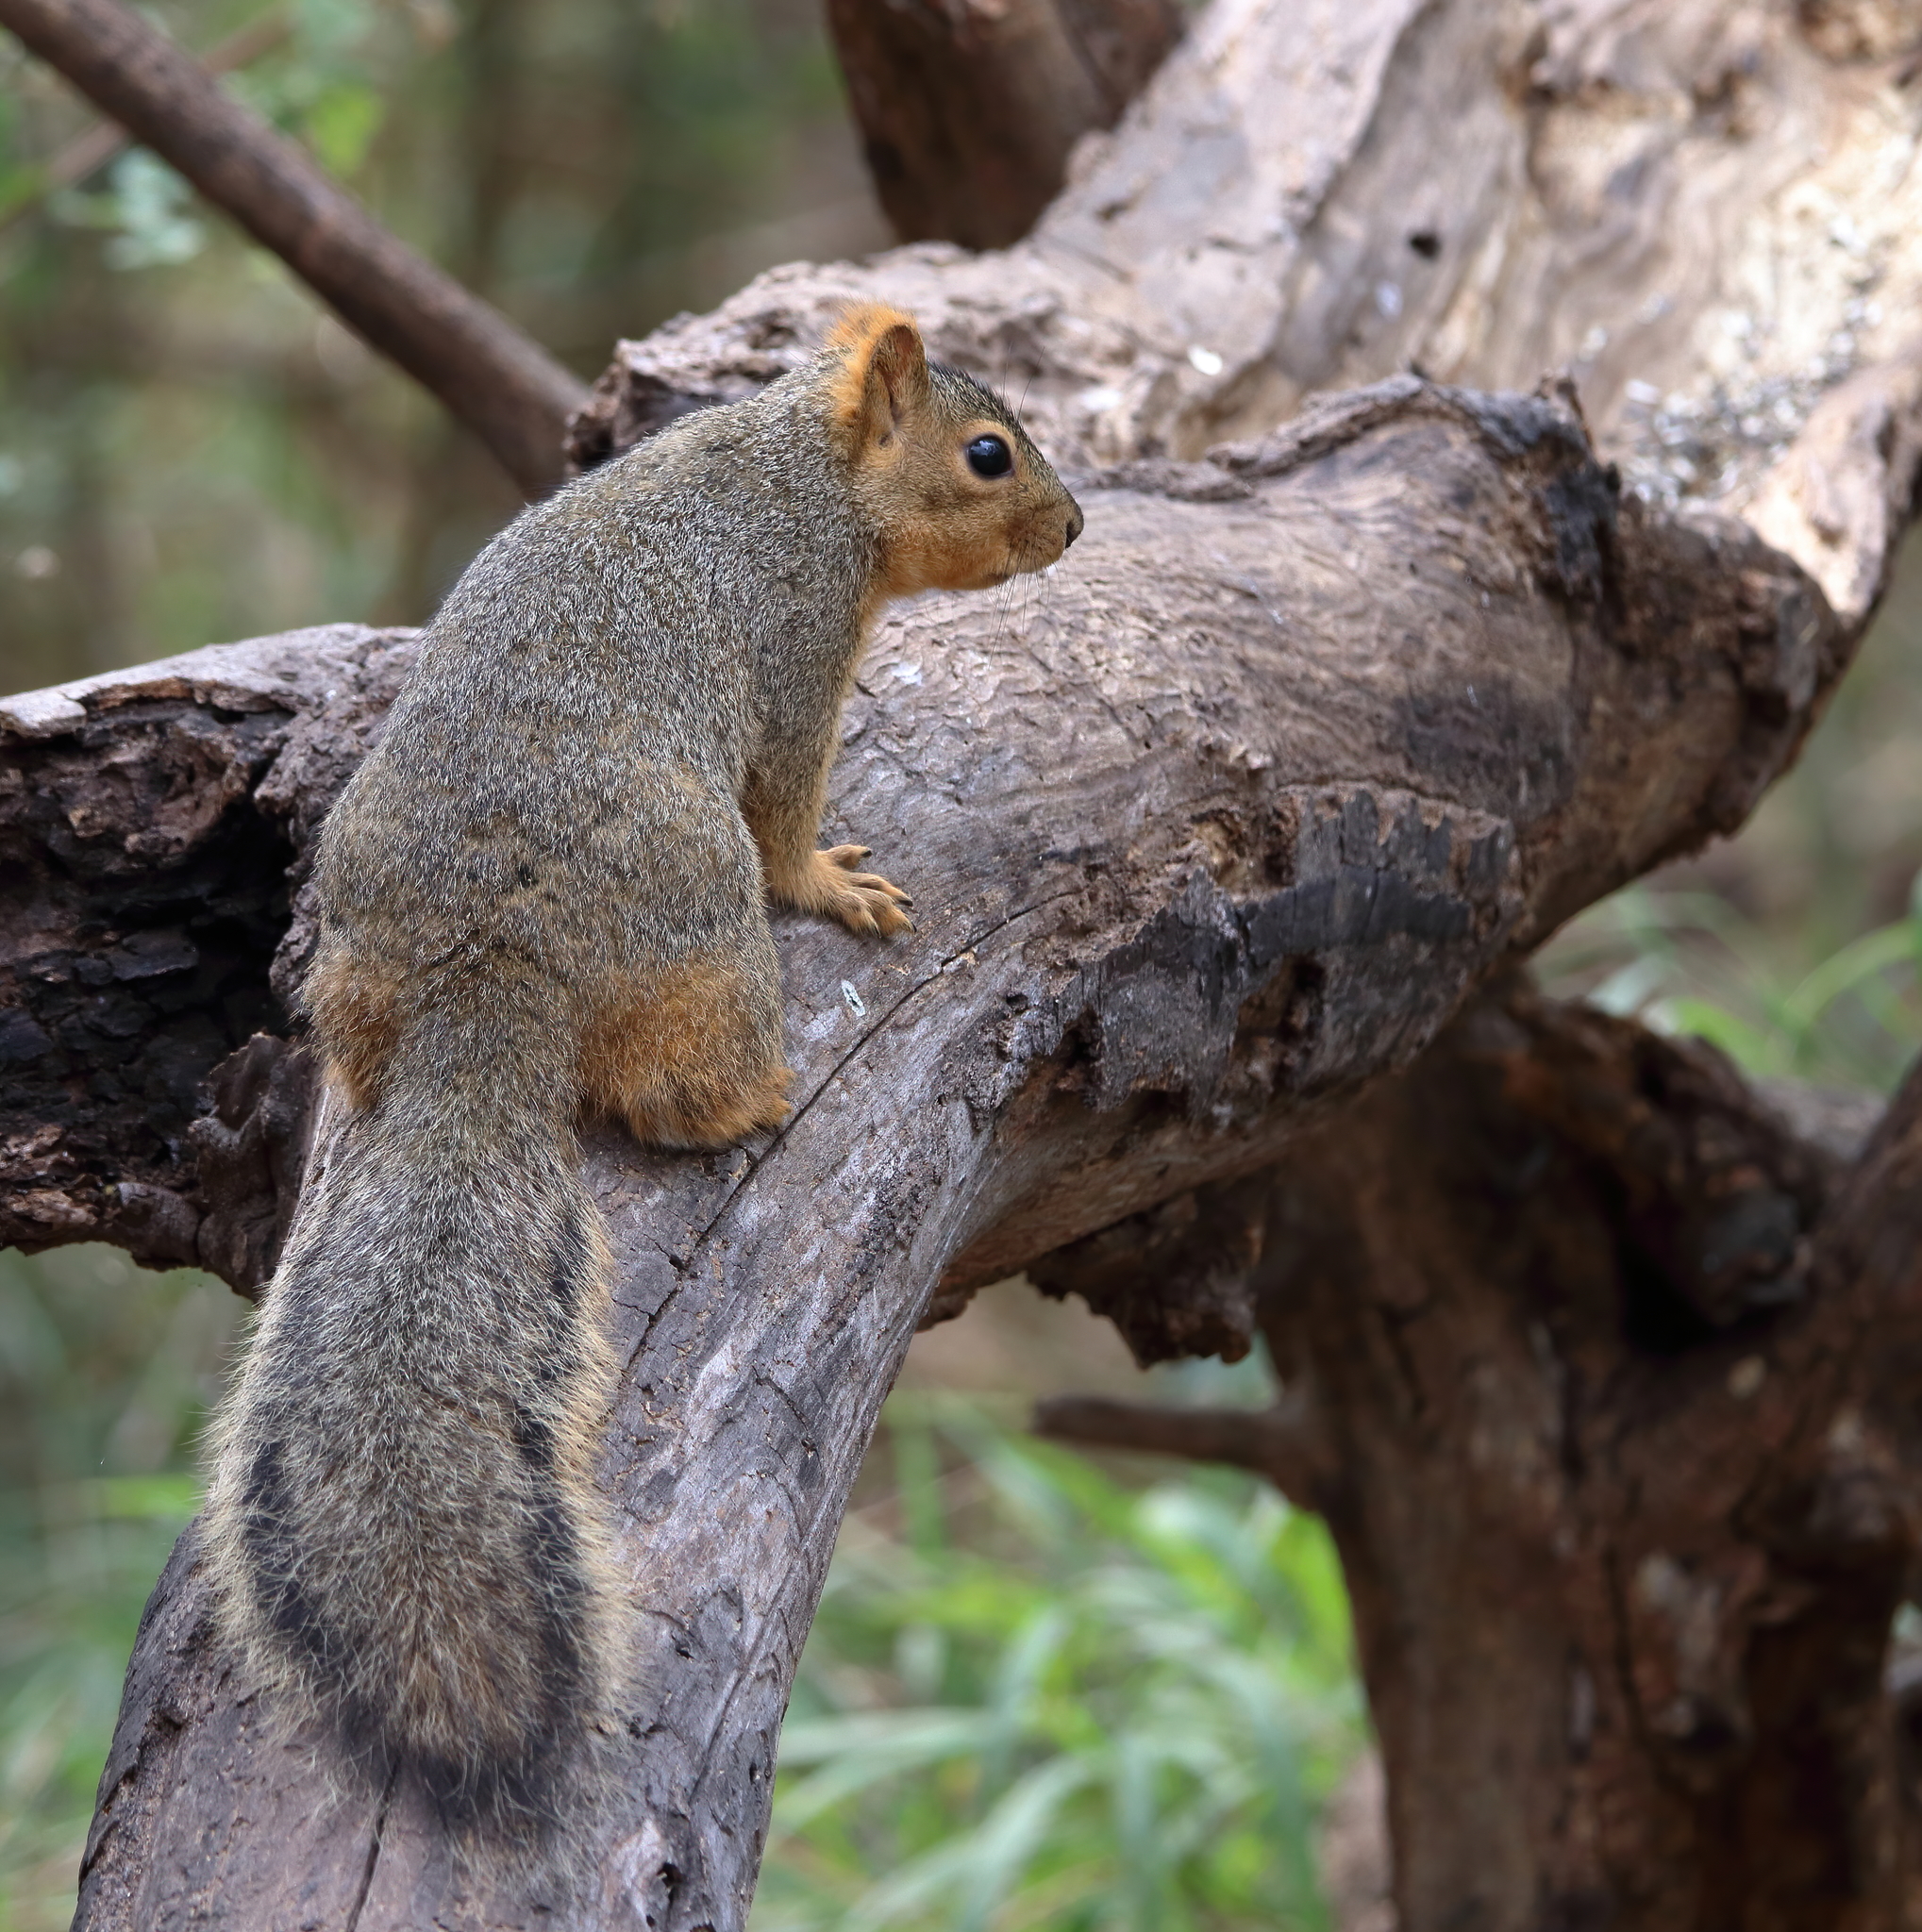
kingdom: Animalia
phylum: Chordata
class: Mammalia
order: Rodentia
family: Sciuridae
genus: Sciurus
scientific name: Sciurus niger
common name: Fox squirrel
